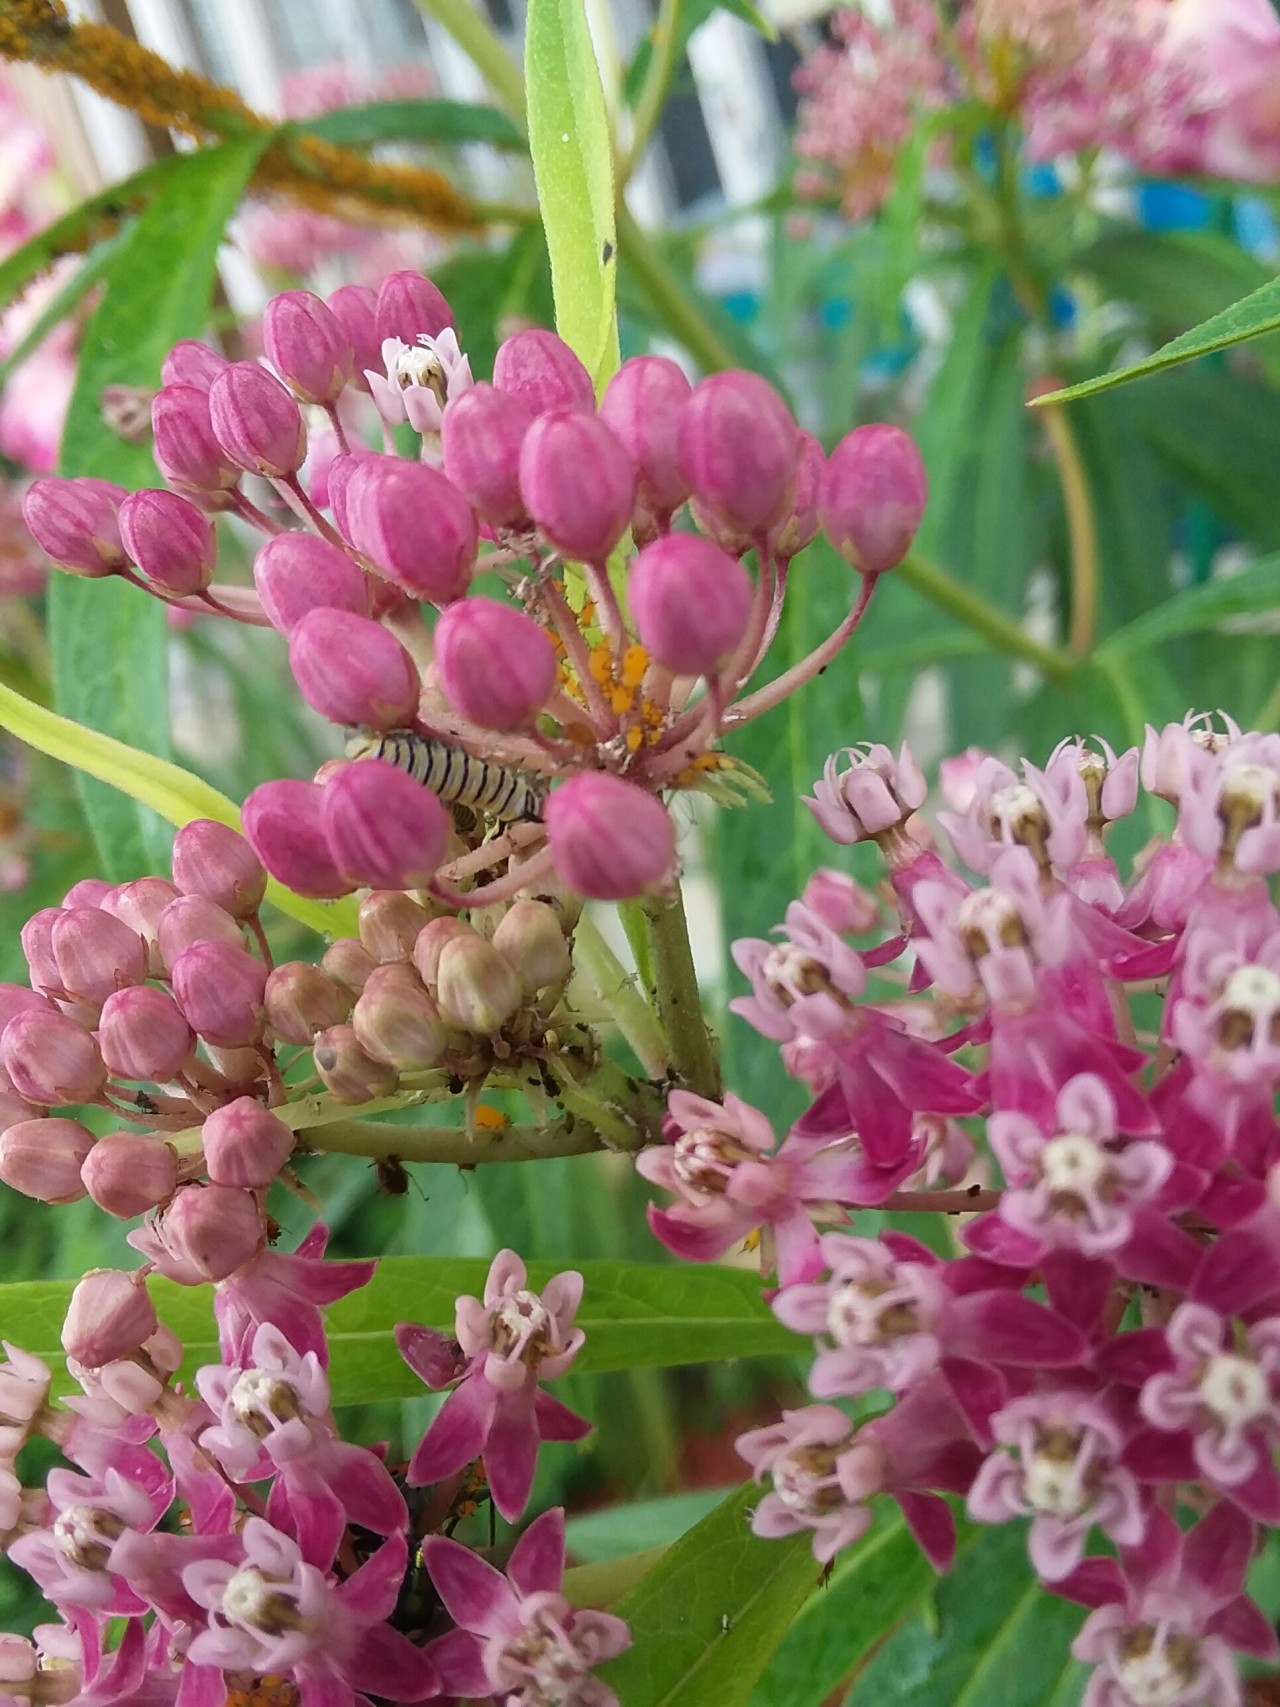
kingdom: Animalia
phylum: Arthropoda
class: Insecta
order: Lepidoptera
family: Nymphalidae
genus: Danaus
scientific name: Danaus plexippus
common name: Monarch
